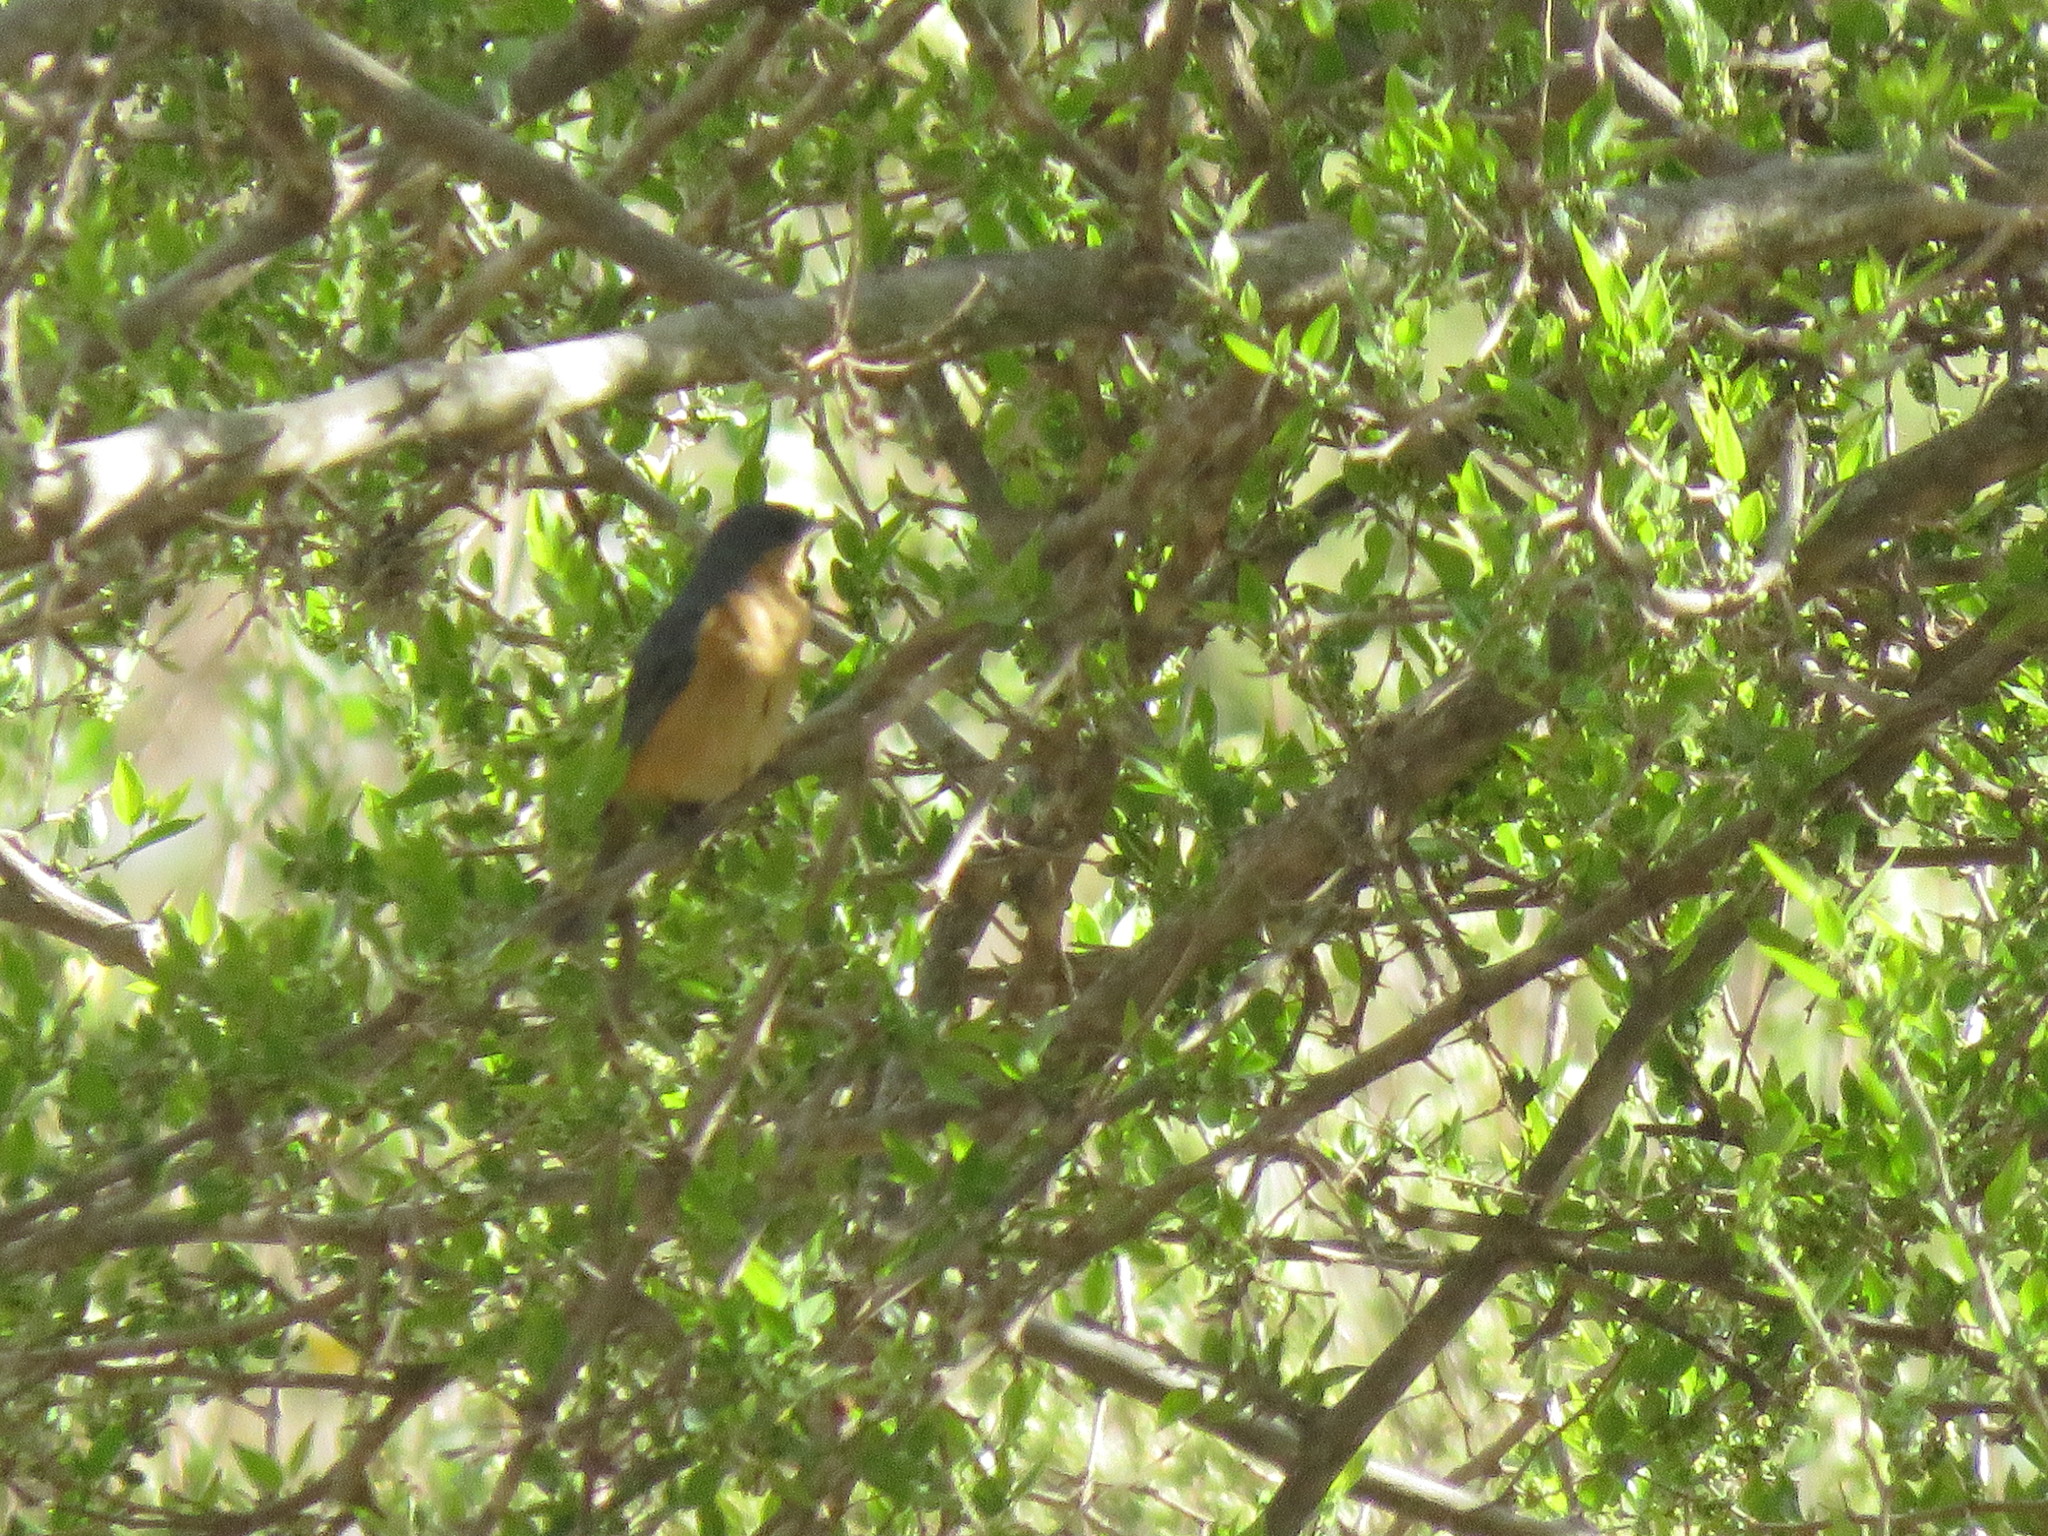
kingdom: Animalia
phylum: Chordata
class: Aves
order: Passeriformes
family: Thraupidae
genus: Diglossa
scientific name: Diglossa sittoides
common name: Rusty flowerpiercer
